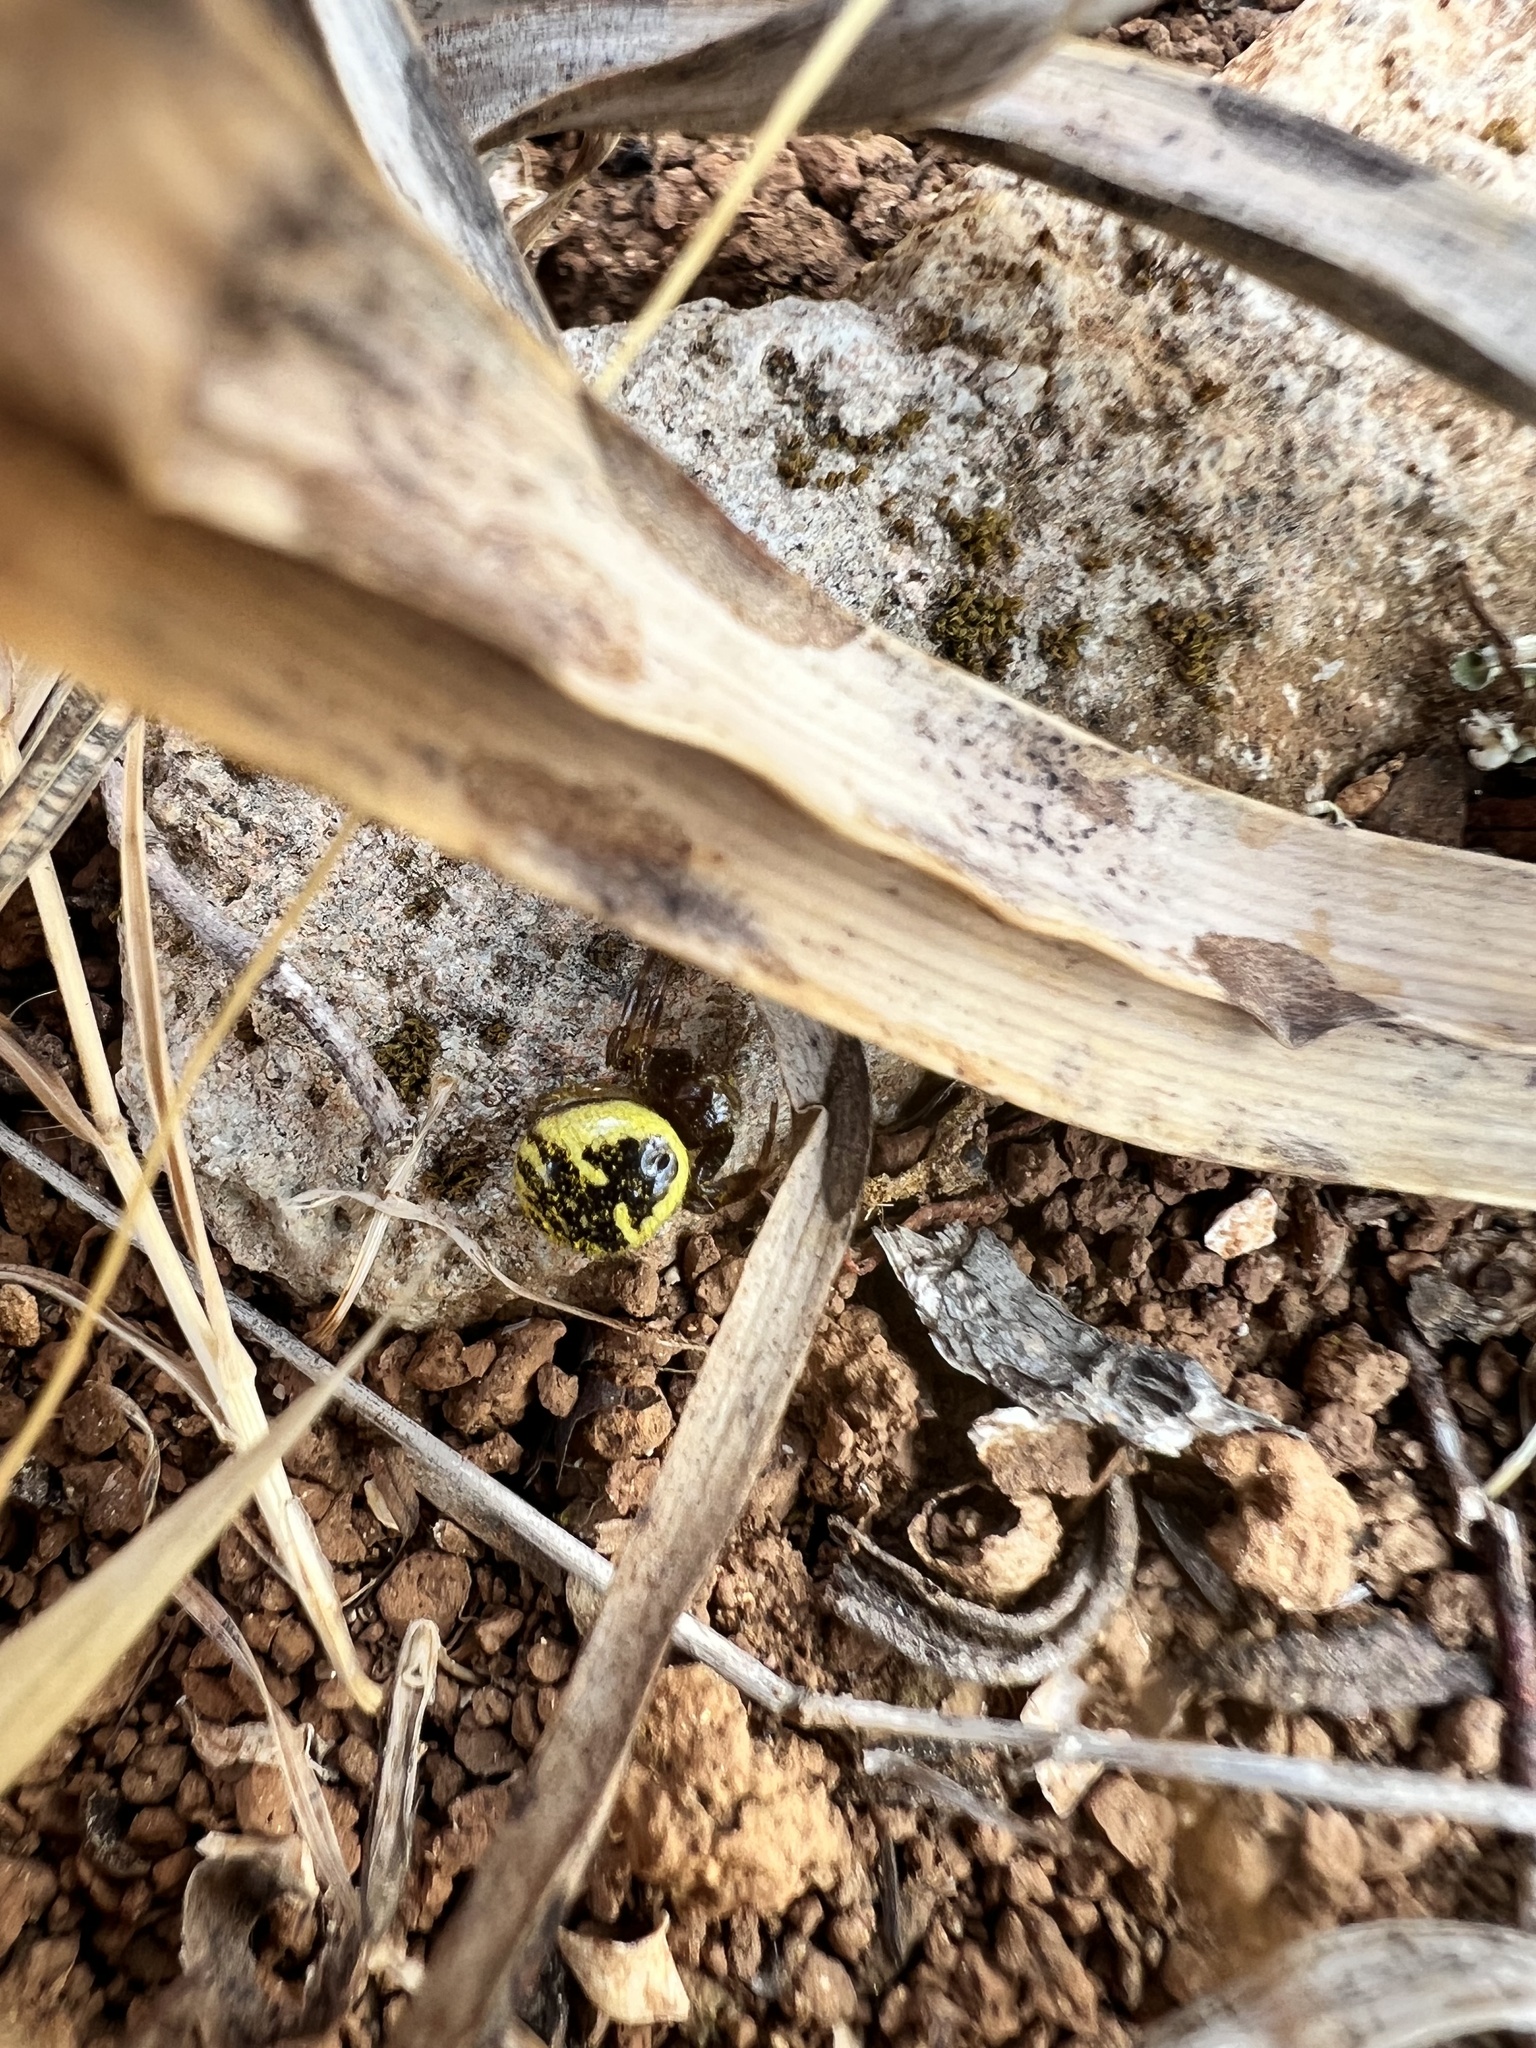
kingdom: Animalia
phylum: Arthropoda
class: Arachnida
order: Araneae
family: Thomisidae
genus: Synema
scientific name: Synema globosum
